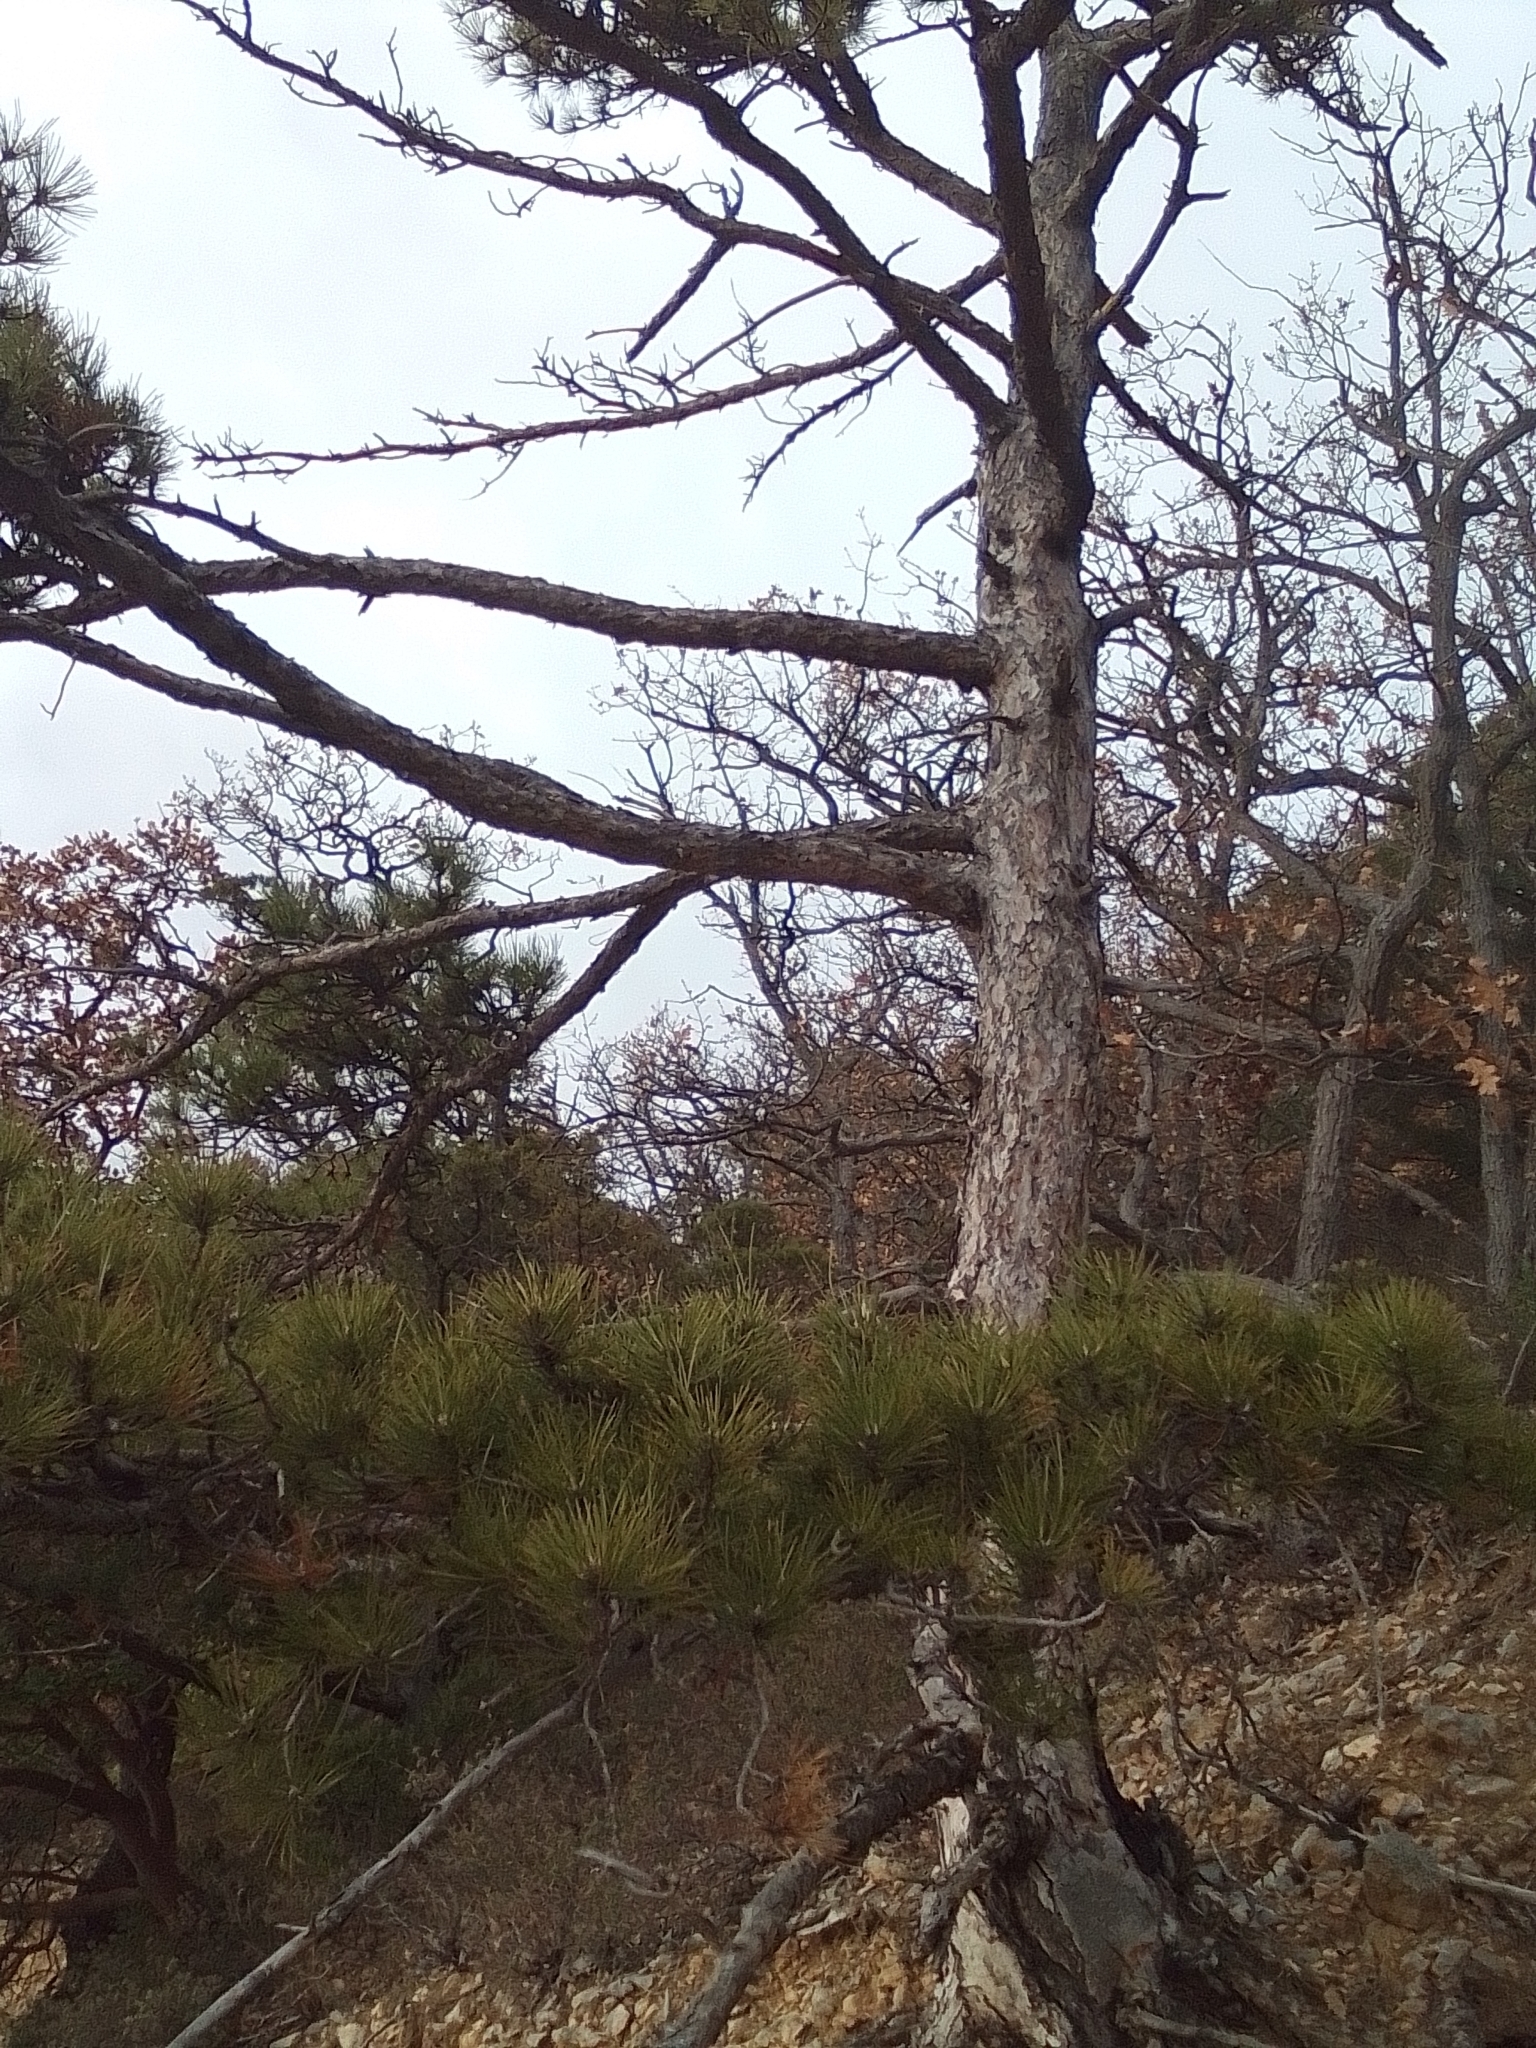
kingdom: Plantae
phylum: Tracheophyta
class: Pinopsida
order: Pinales
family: Pinaceae
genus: Pinus
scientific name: Pinus nigra
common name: Austrian pine
